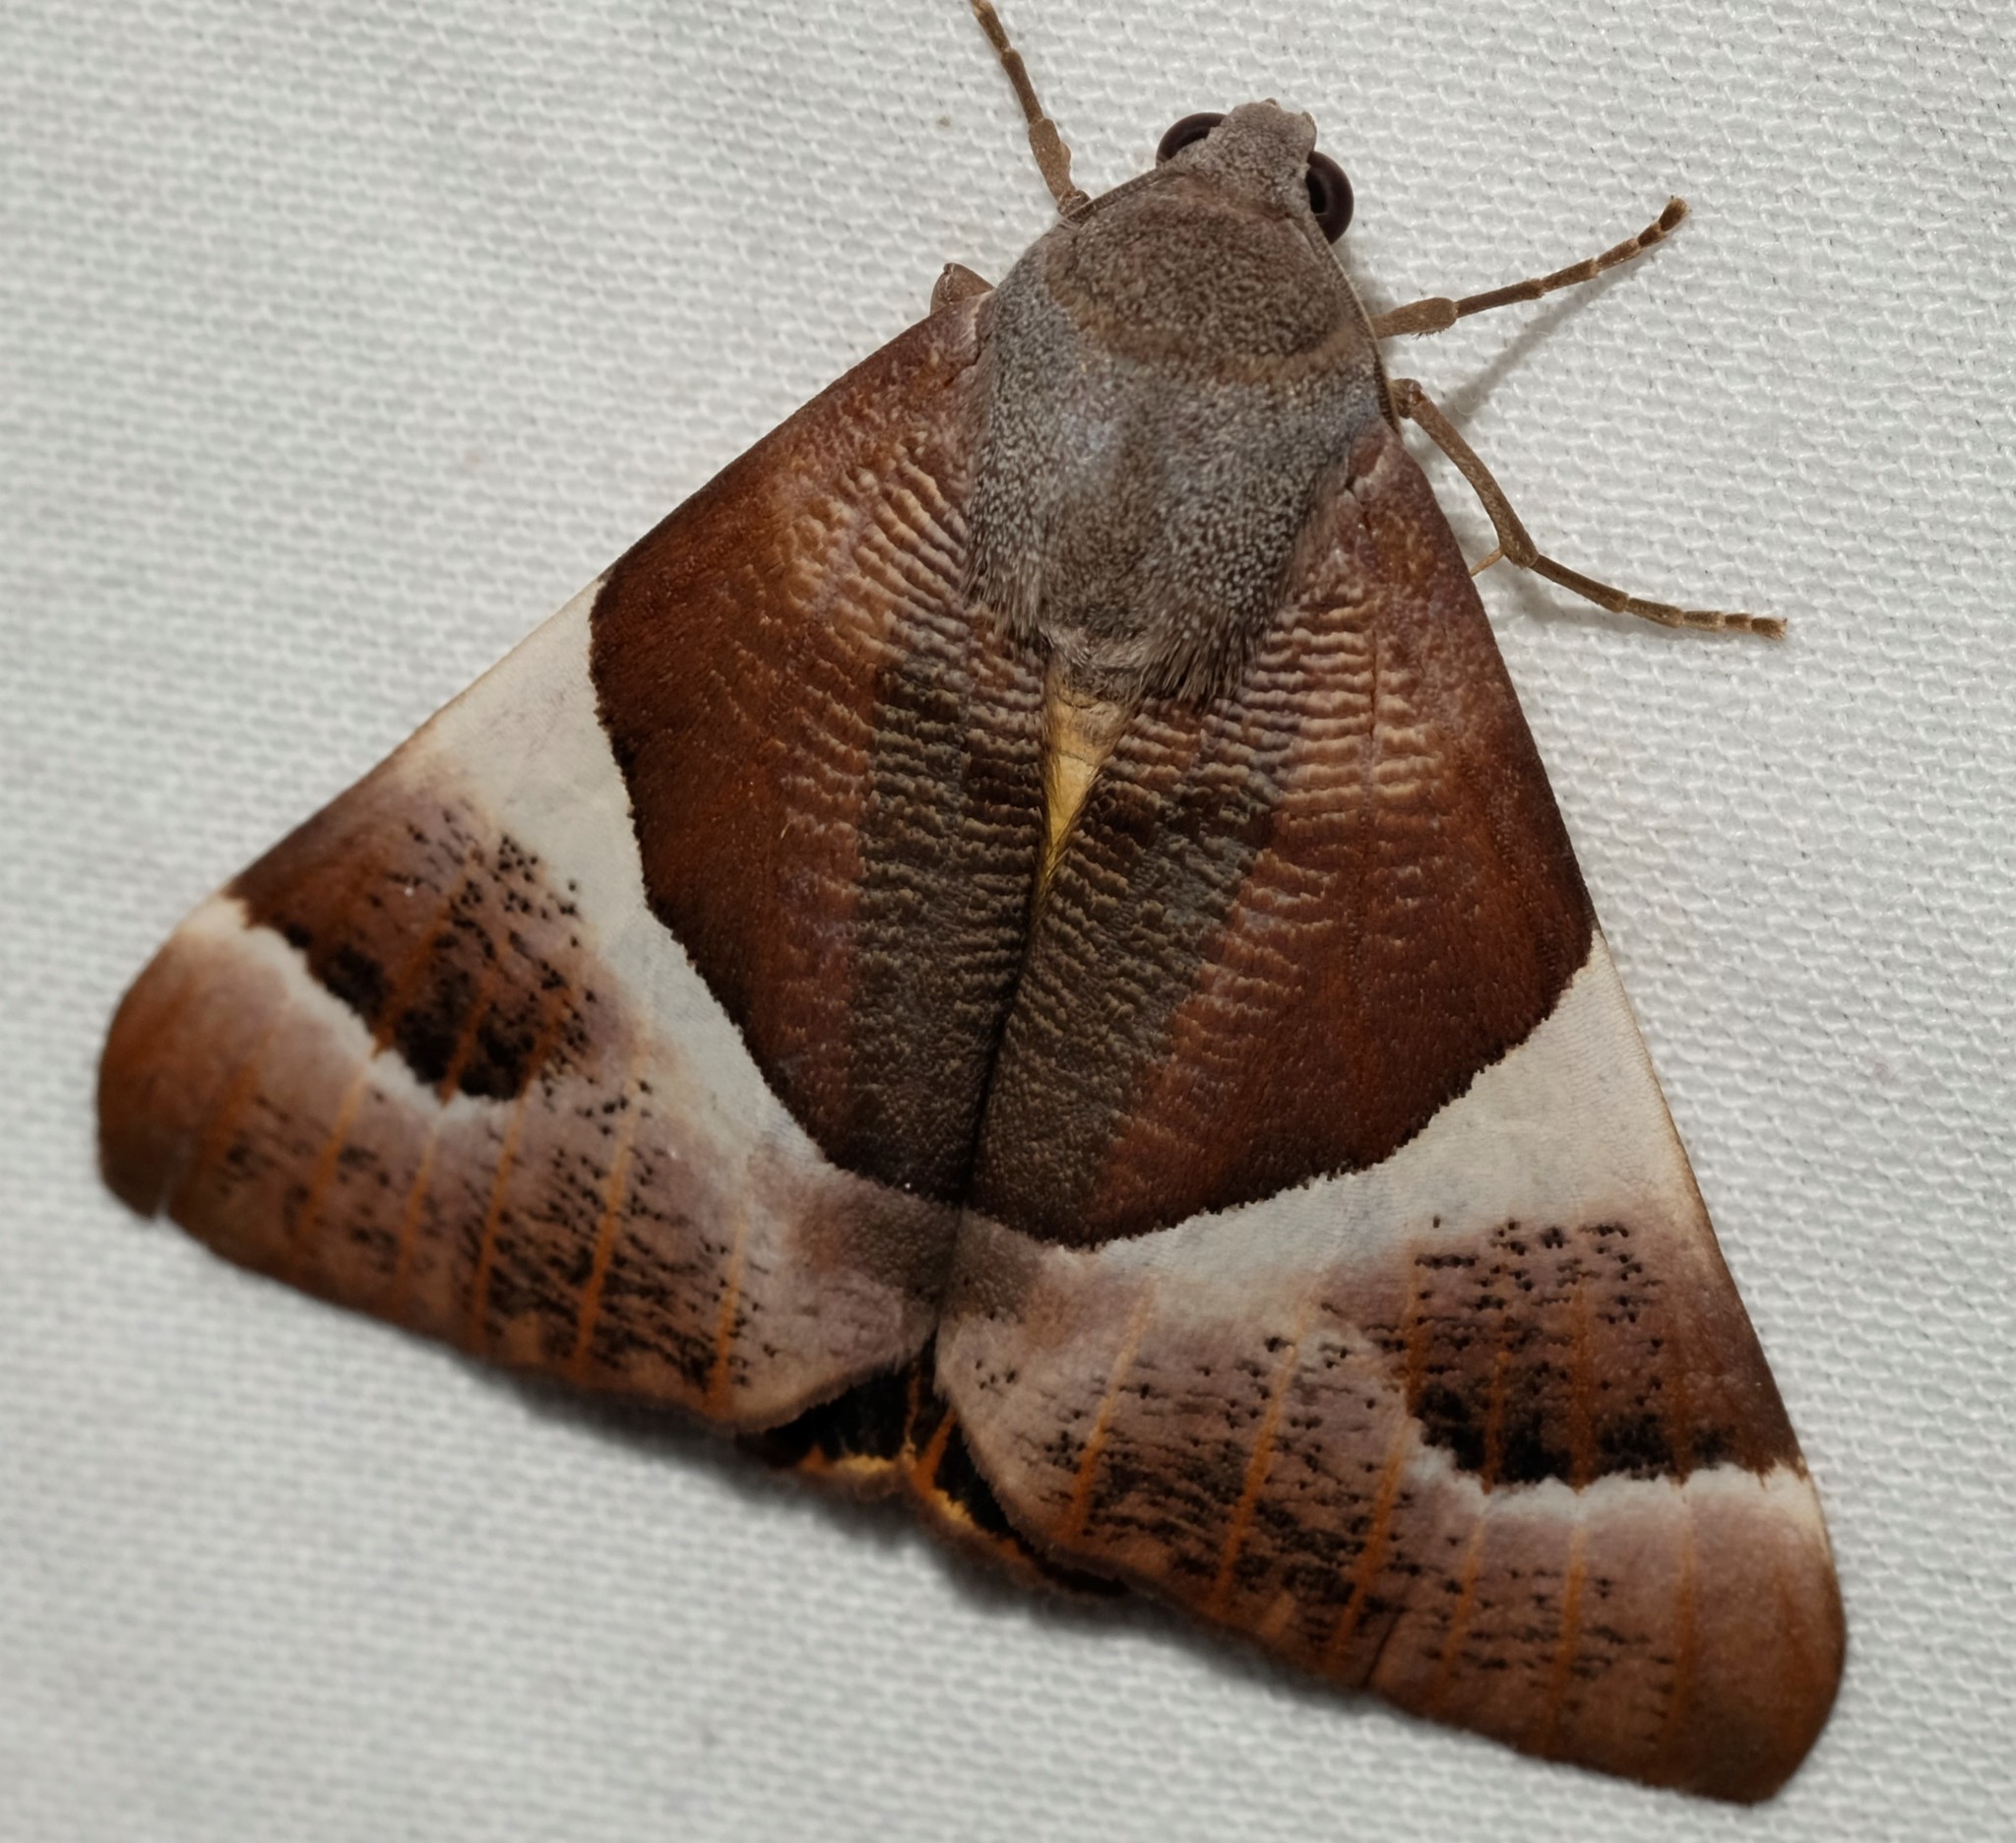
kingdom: Animalia
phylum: Arthropoda
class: Insecta
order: Lepidoptera
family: Geometridae
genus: Niceteria
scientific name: Niceteria macrocosma
